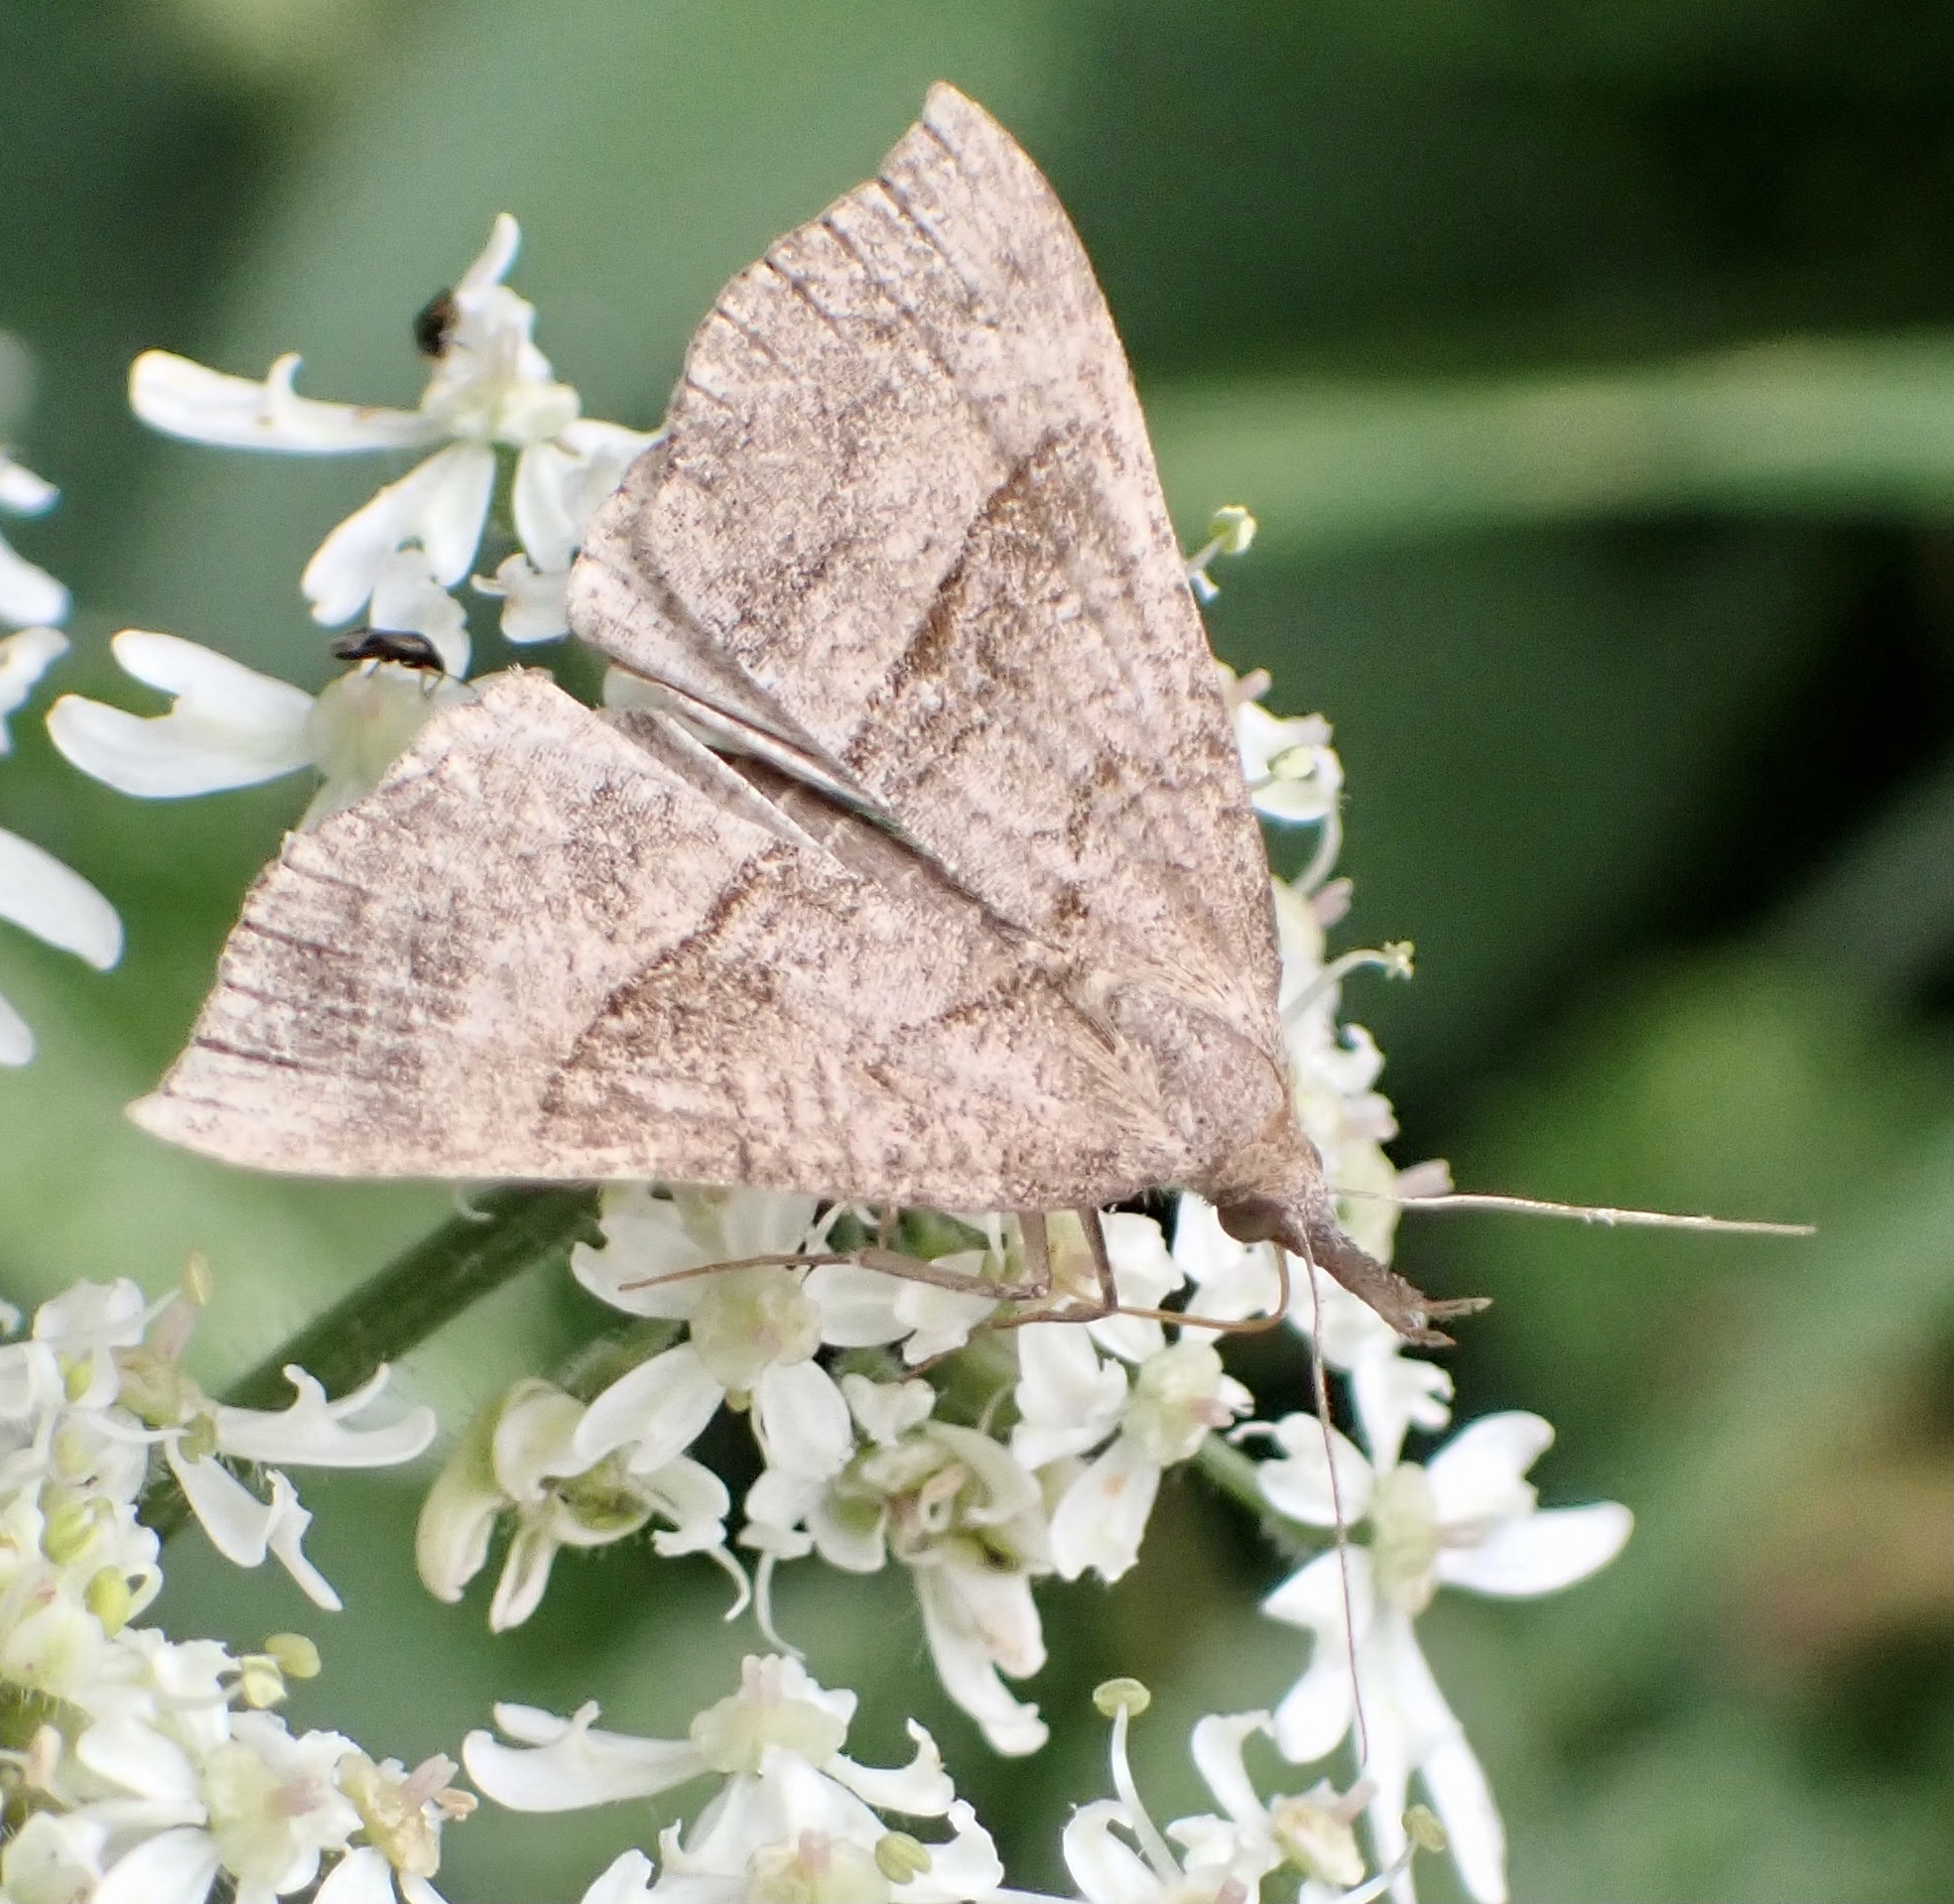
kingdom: Animalia
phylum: Arthropoda
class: Insecta
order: Lepidoptera
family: Erebidae
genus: Hypena
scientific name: Hypena proboscidalis
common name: Snout
